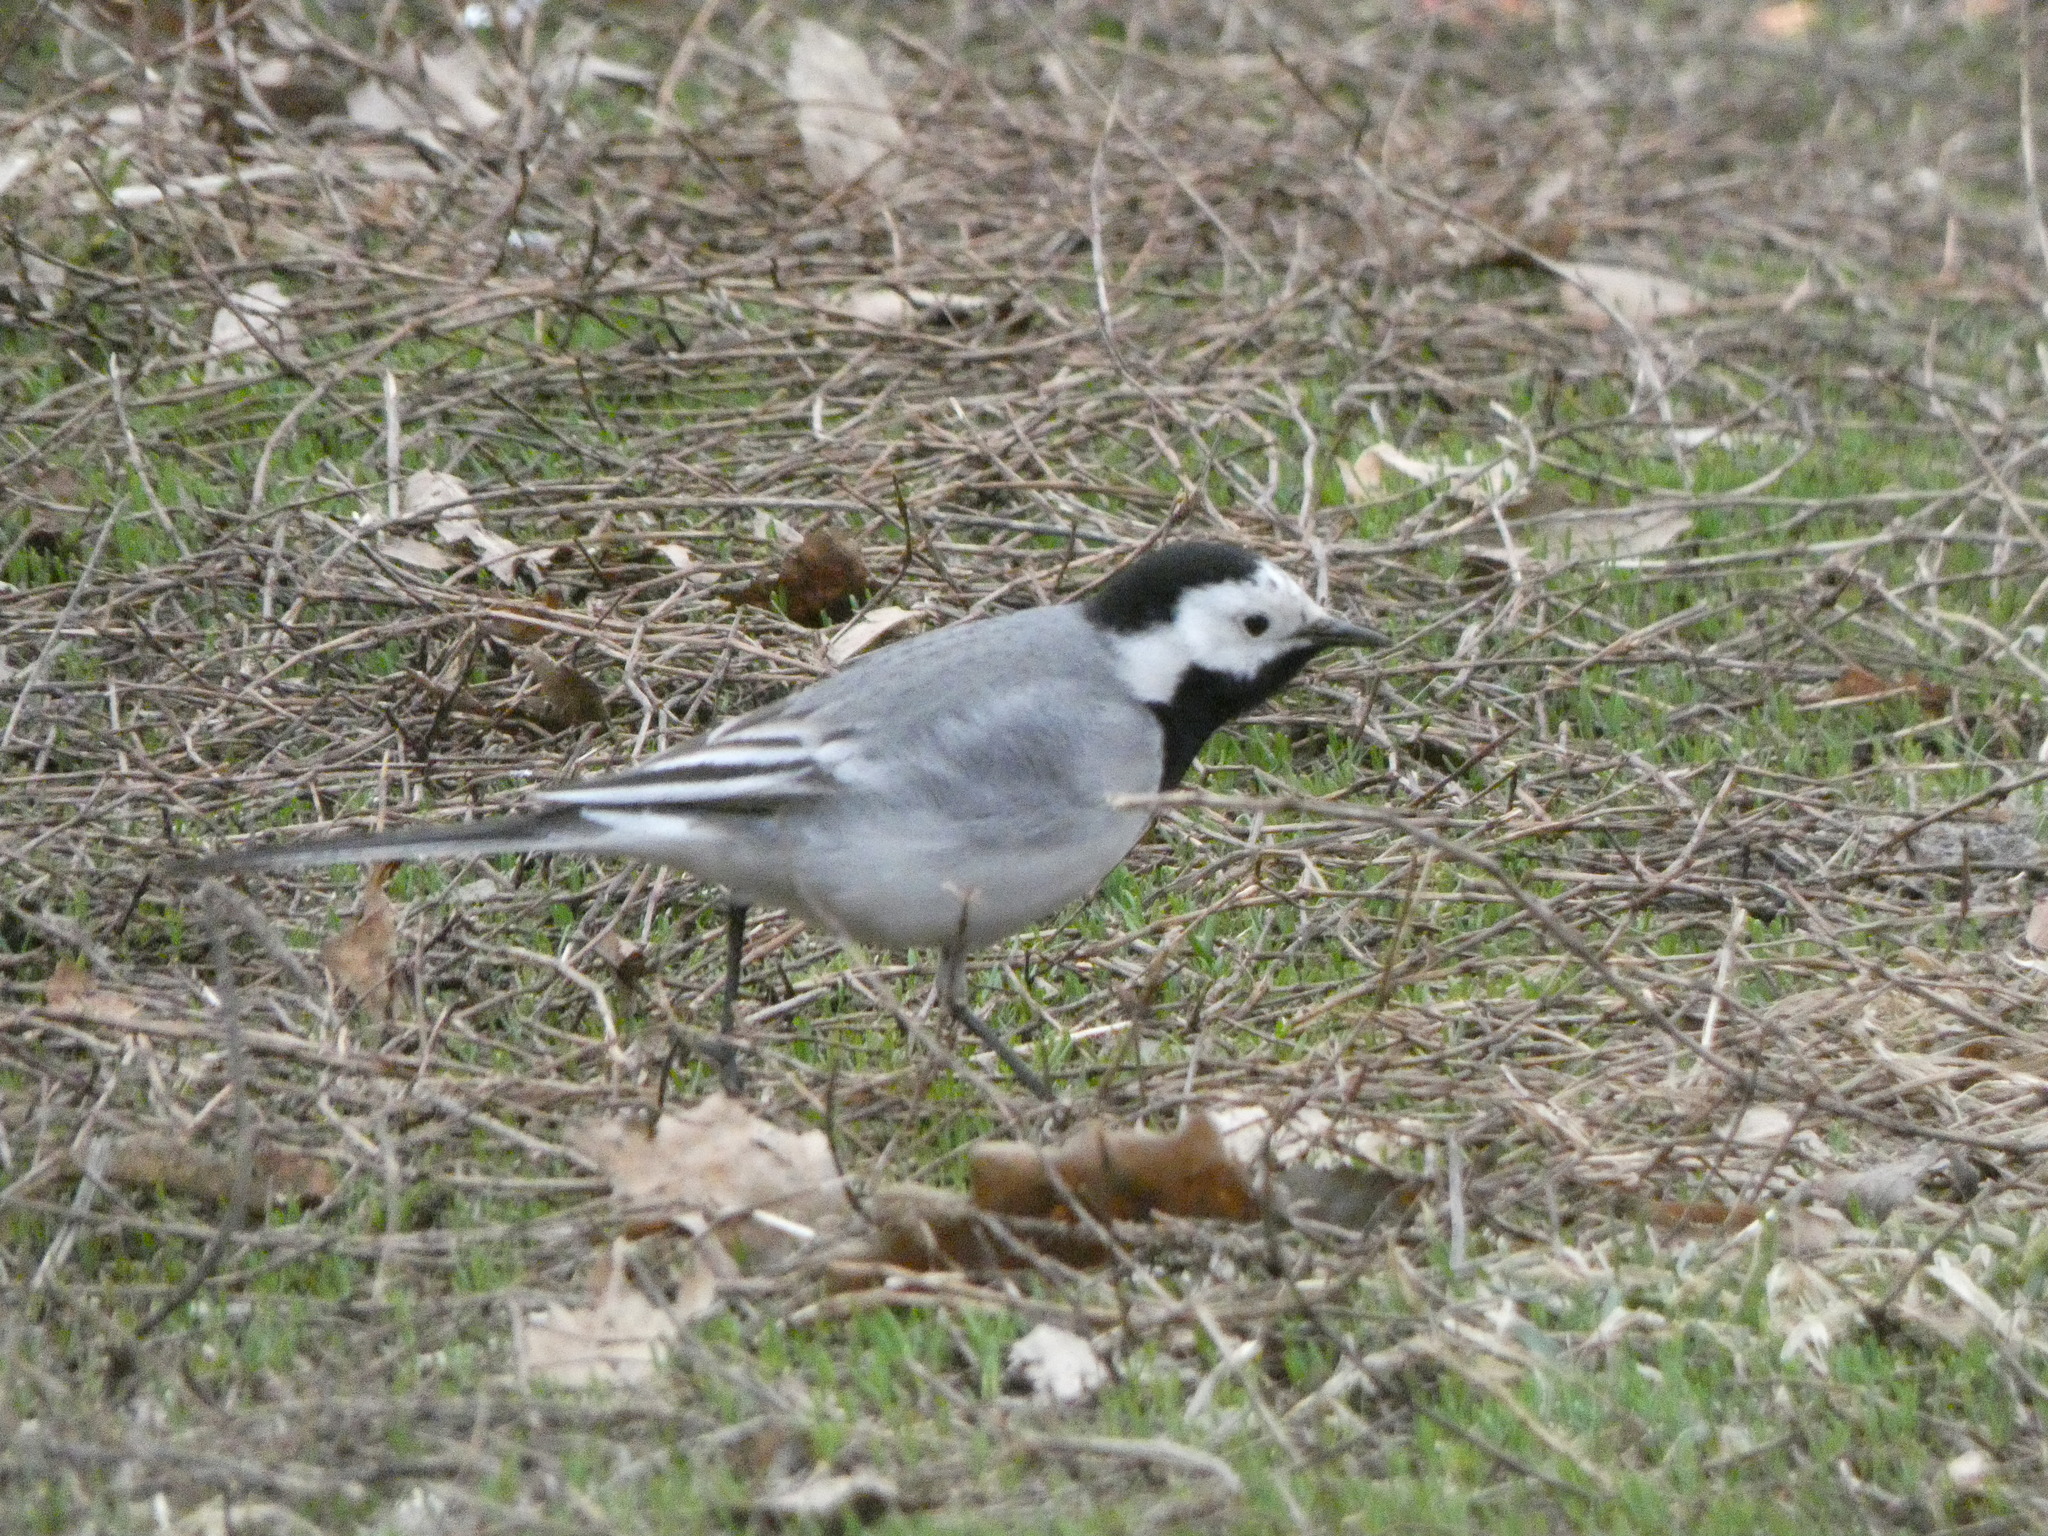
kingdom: Animalia
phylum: Chordata
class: Aves
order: Passeriformes
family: Motacillidae
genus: Motacilla
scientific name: Motacilla alba
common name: White wagtail
